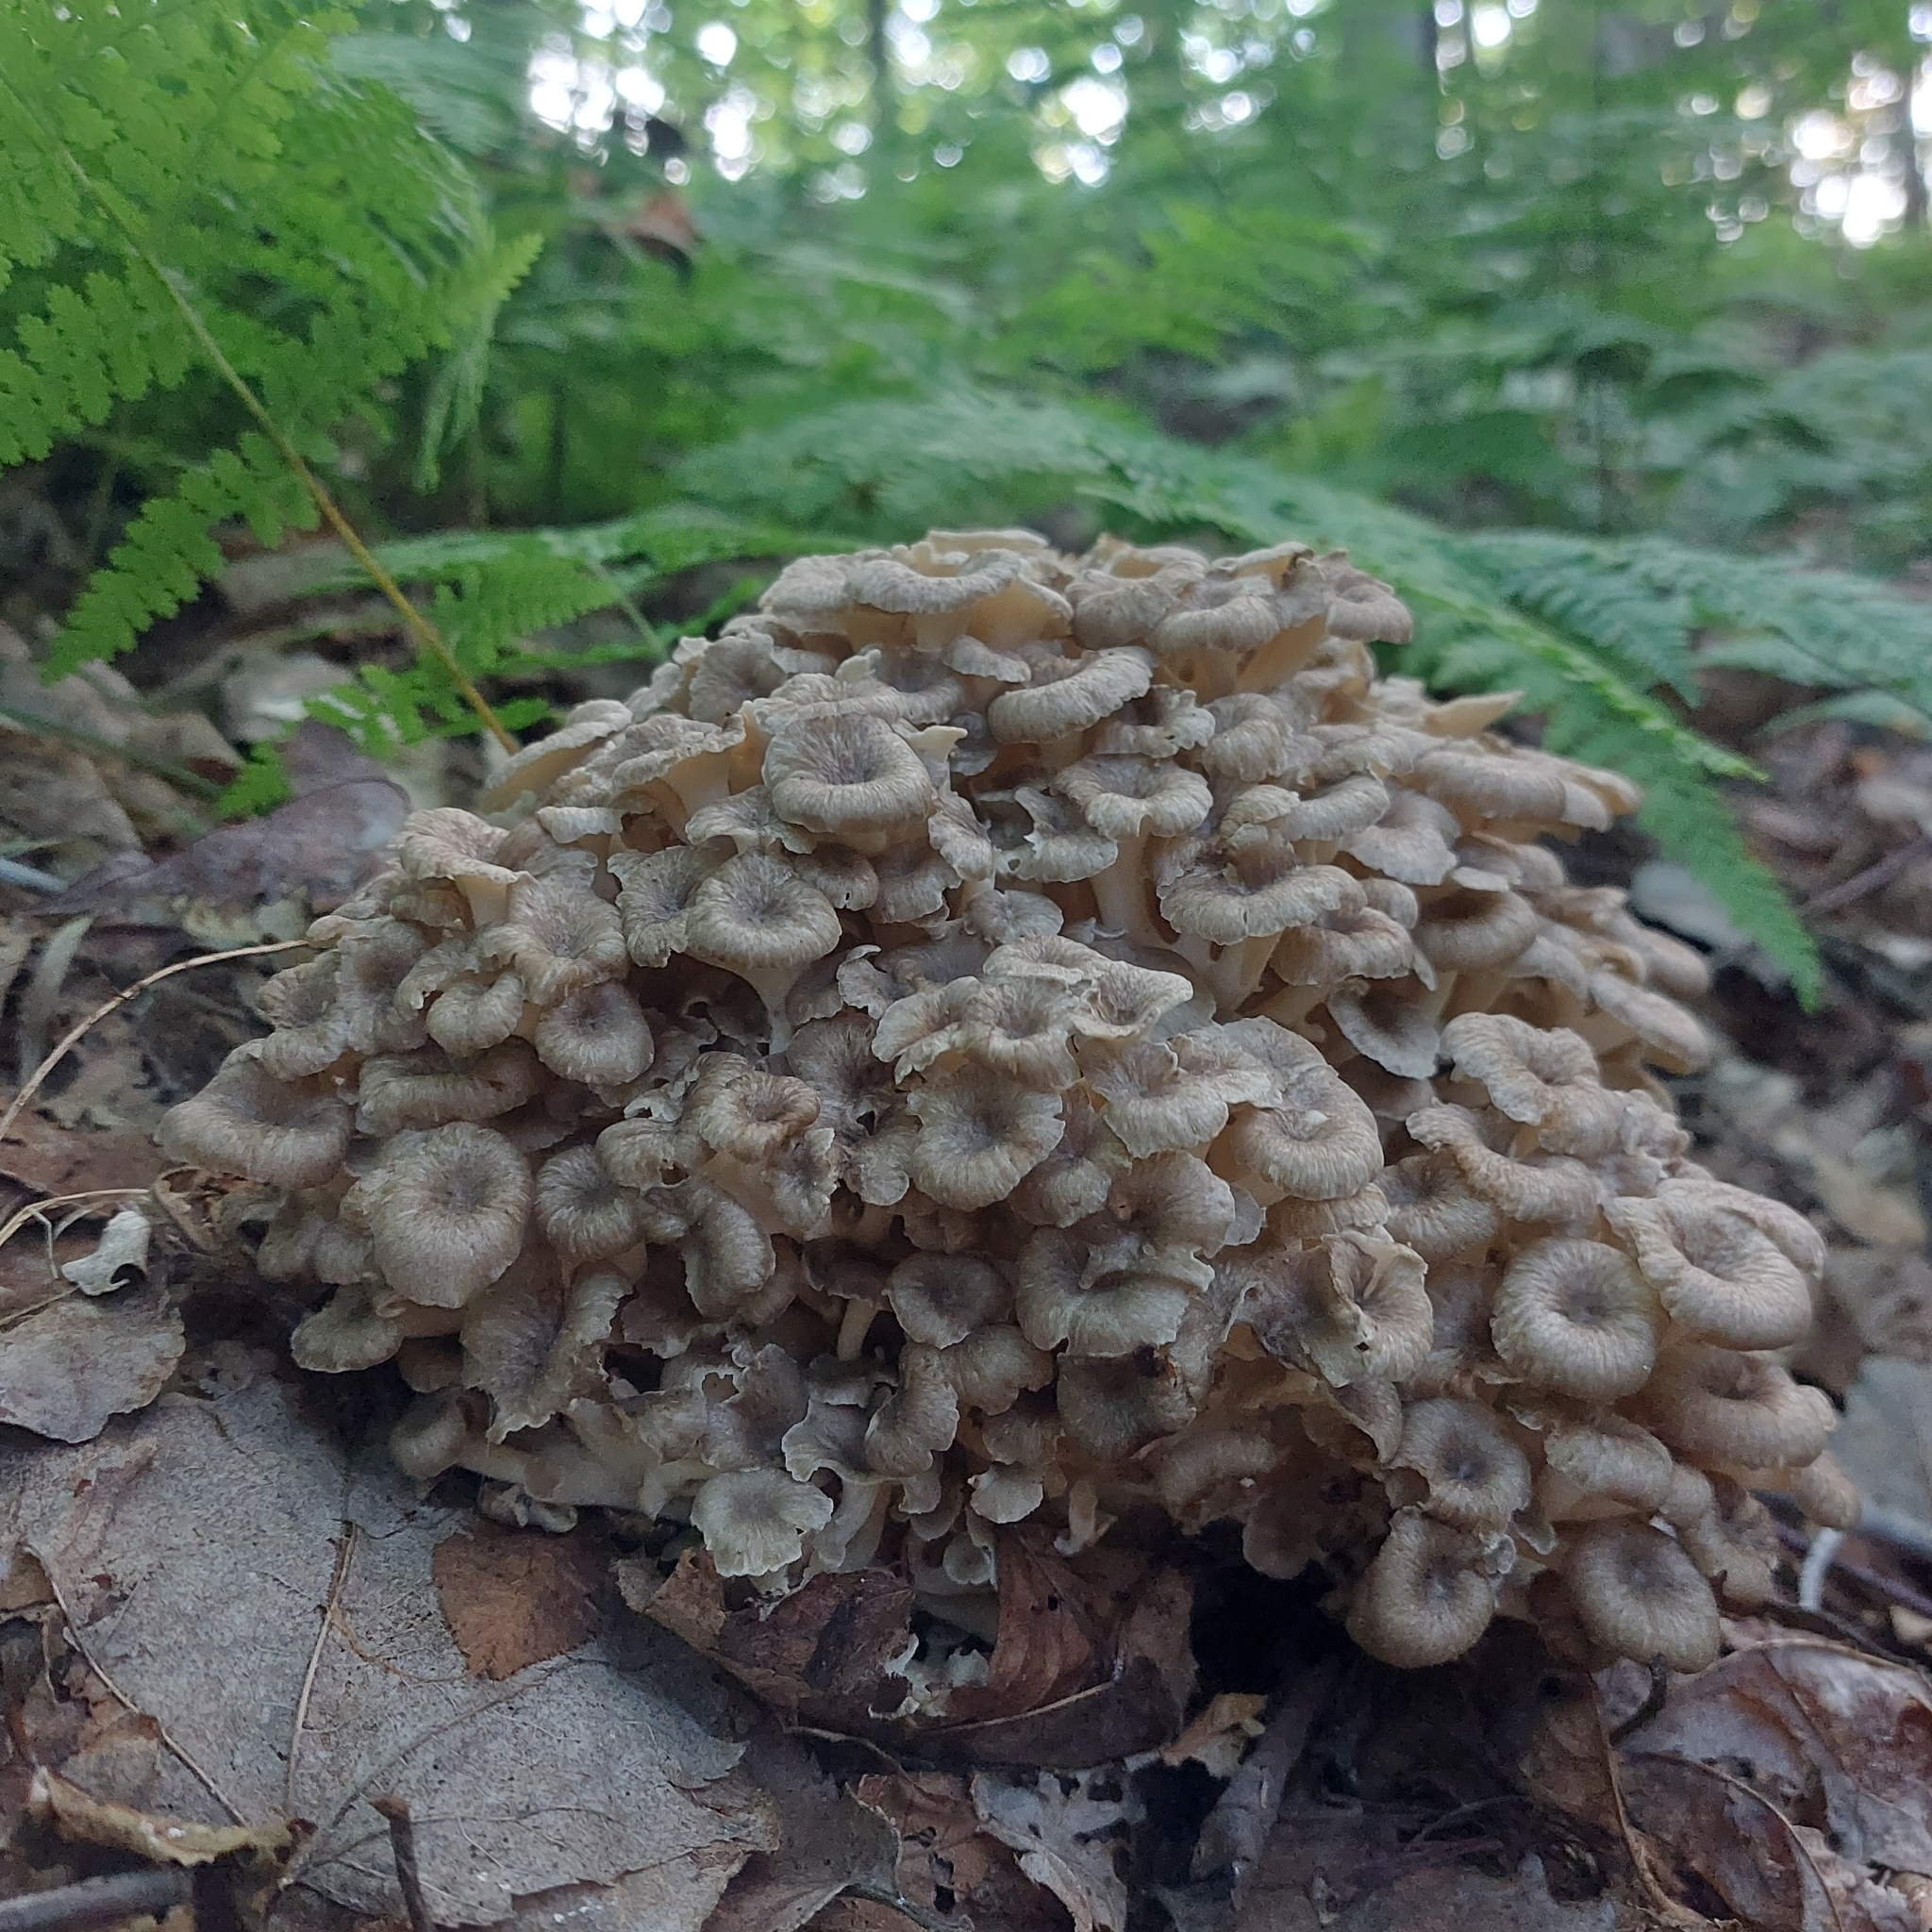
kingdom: Fungi
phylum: Basidiomycota
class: Agaricomycetes
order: Polyporales
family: Polyporaceae
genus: Polyporus
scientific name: Polyporus umbellatus
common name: Umbrella polypore
